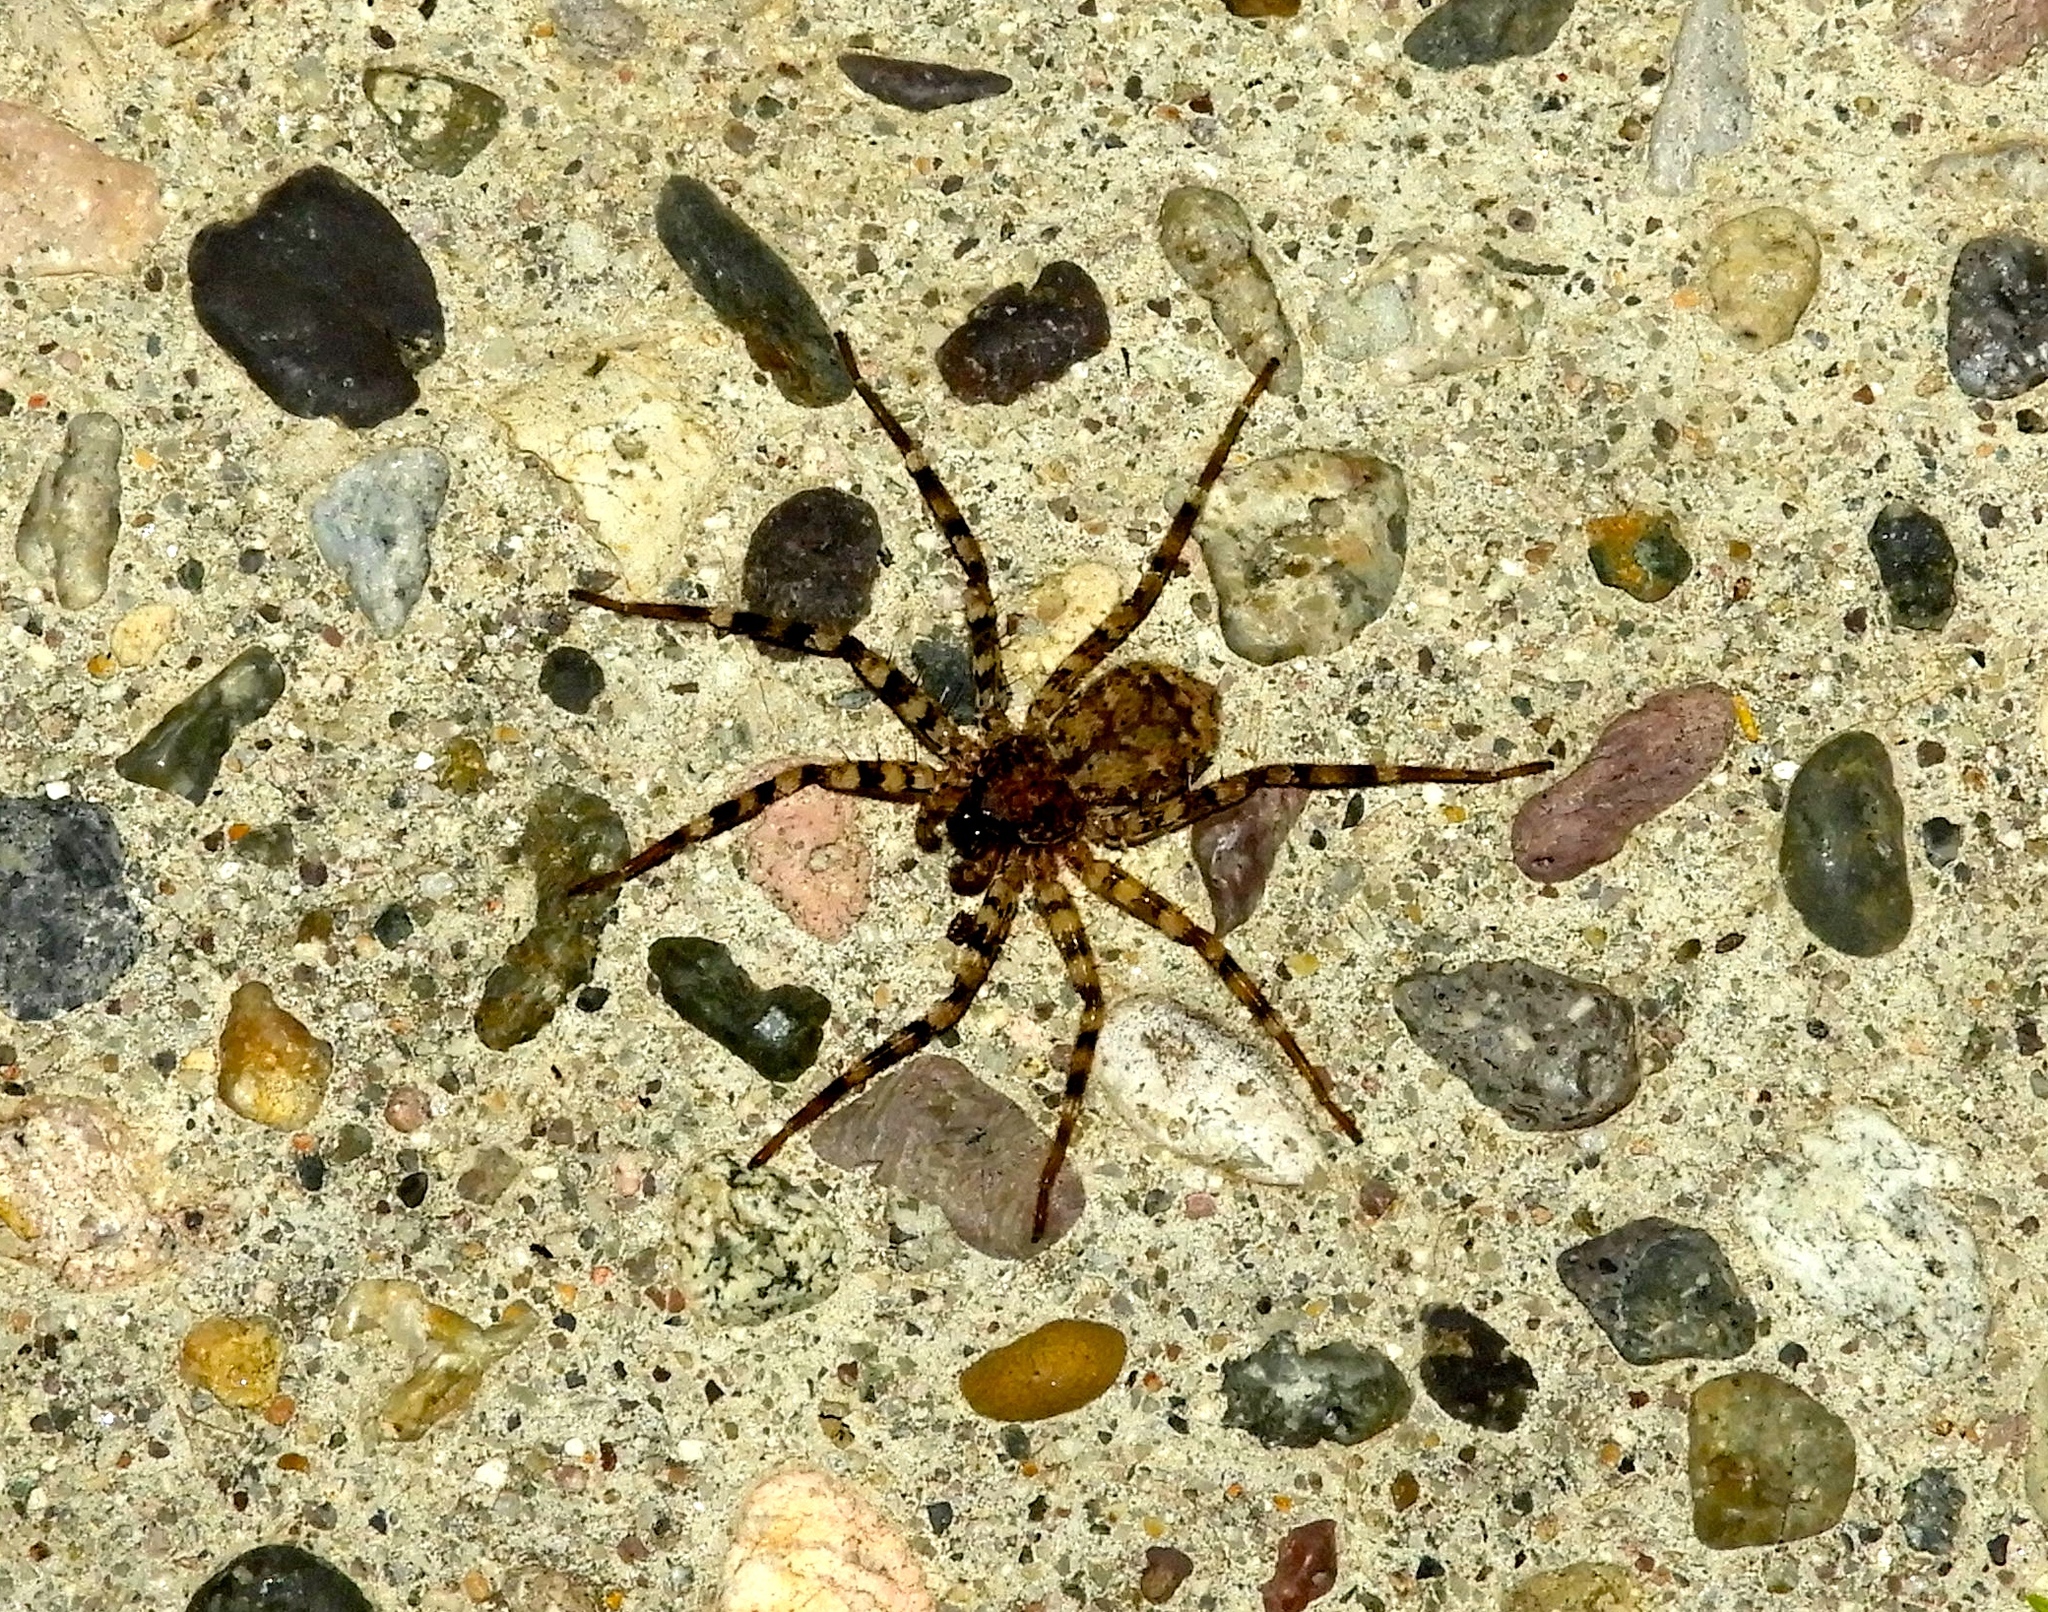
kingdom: Animalia
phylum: Arthropoda
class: Arachnida
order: Araneae
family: Selenopidae
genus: Selenops
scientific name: Selenops
